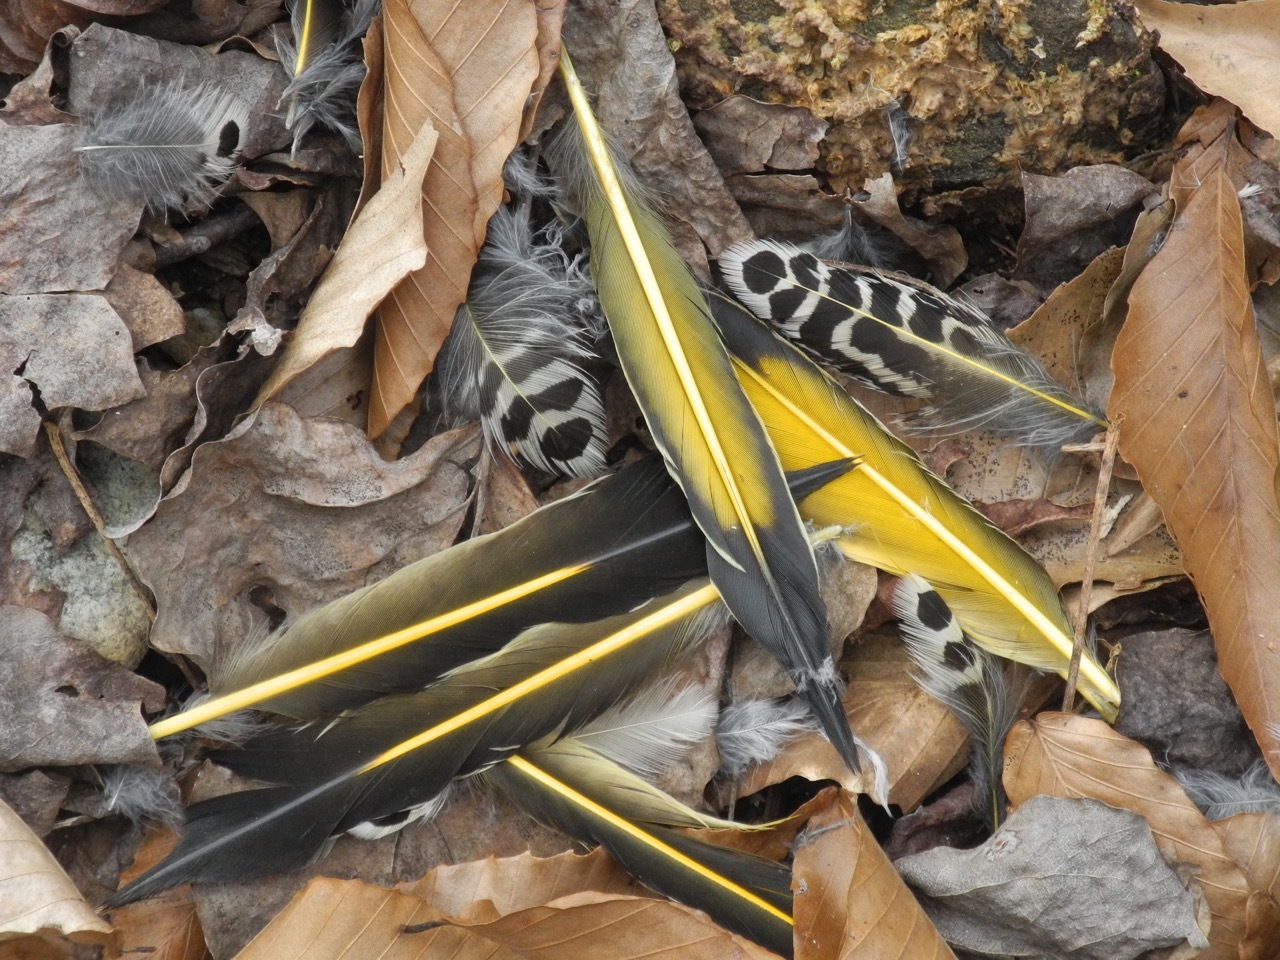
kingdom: Animalia
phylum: Chordata
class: Aves
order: Piciformes
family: Picidae
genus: Colaptes
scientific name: Colaptes auratus
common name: Northern flicker
